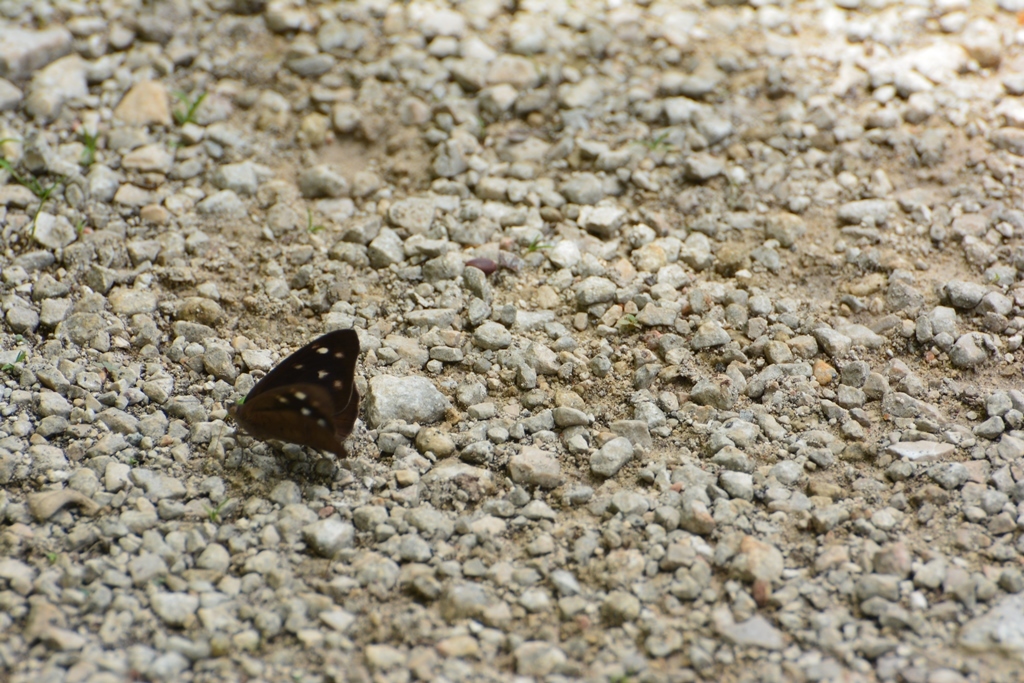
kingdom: Animalia
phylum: Arthropoda
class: Insecta
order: Lepidoptera
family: Nymphalidae
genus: Eunica
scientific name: Eunica monima
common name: Dingy purplewing
